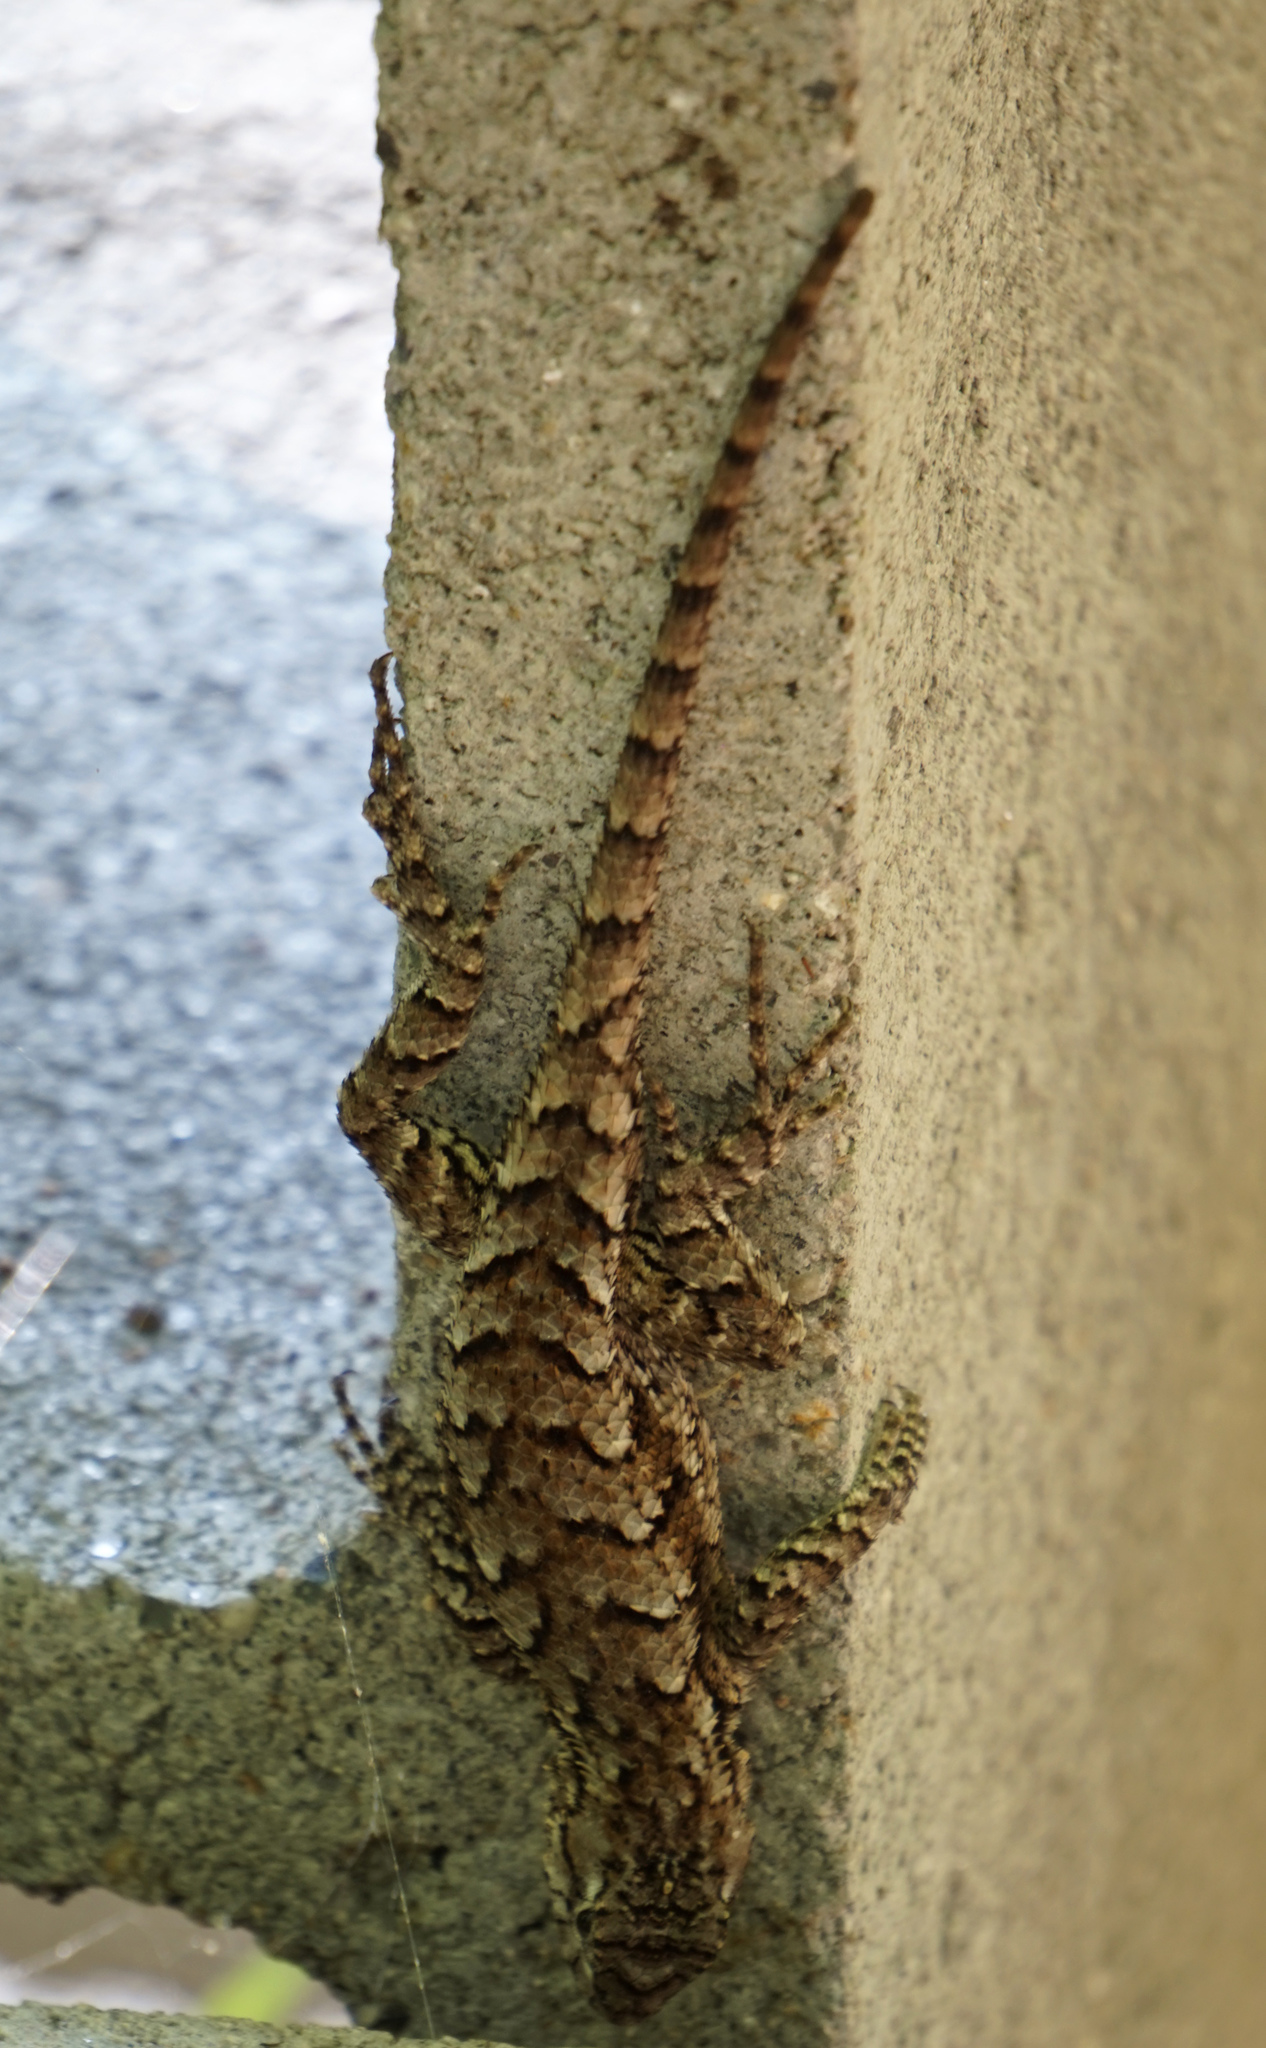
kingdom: Animalia
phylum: Chordata
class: Squamata
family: Phrynosomatidae
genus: Sceloporus
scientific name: Sceloporus undulatus
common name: Eastern fence lizard
